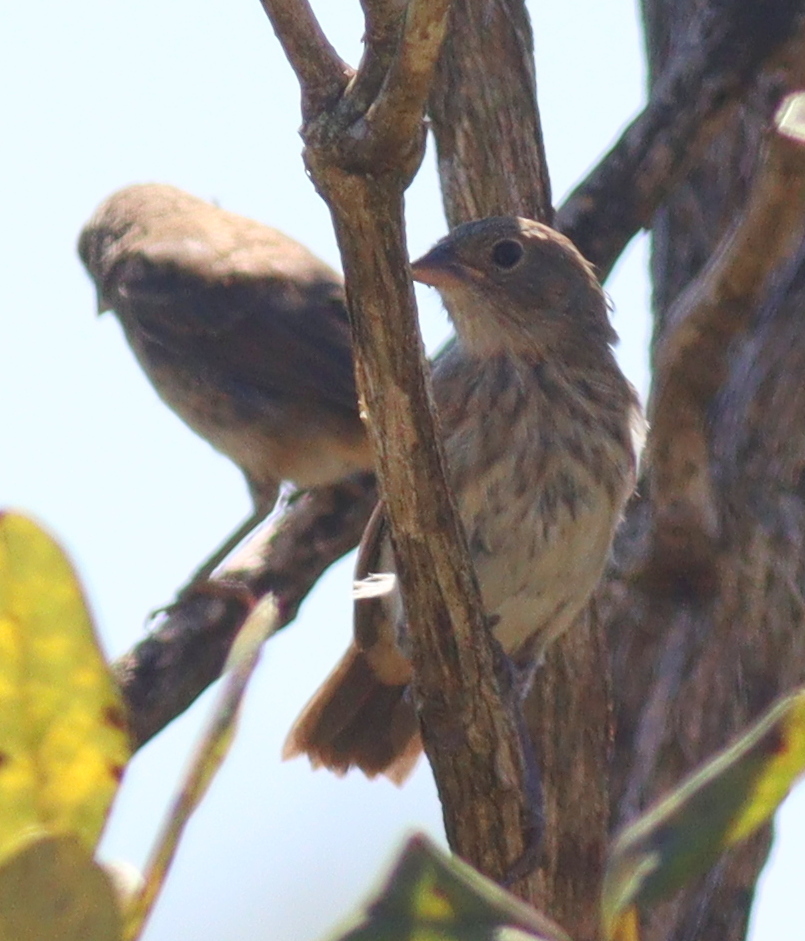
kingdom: Animalia
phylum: Chordata
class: Aves
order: Passeriformes
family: Thraupidae
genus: Volatinia
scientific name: Volatinia jacarina
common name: Blue-black grassquit
